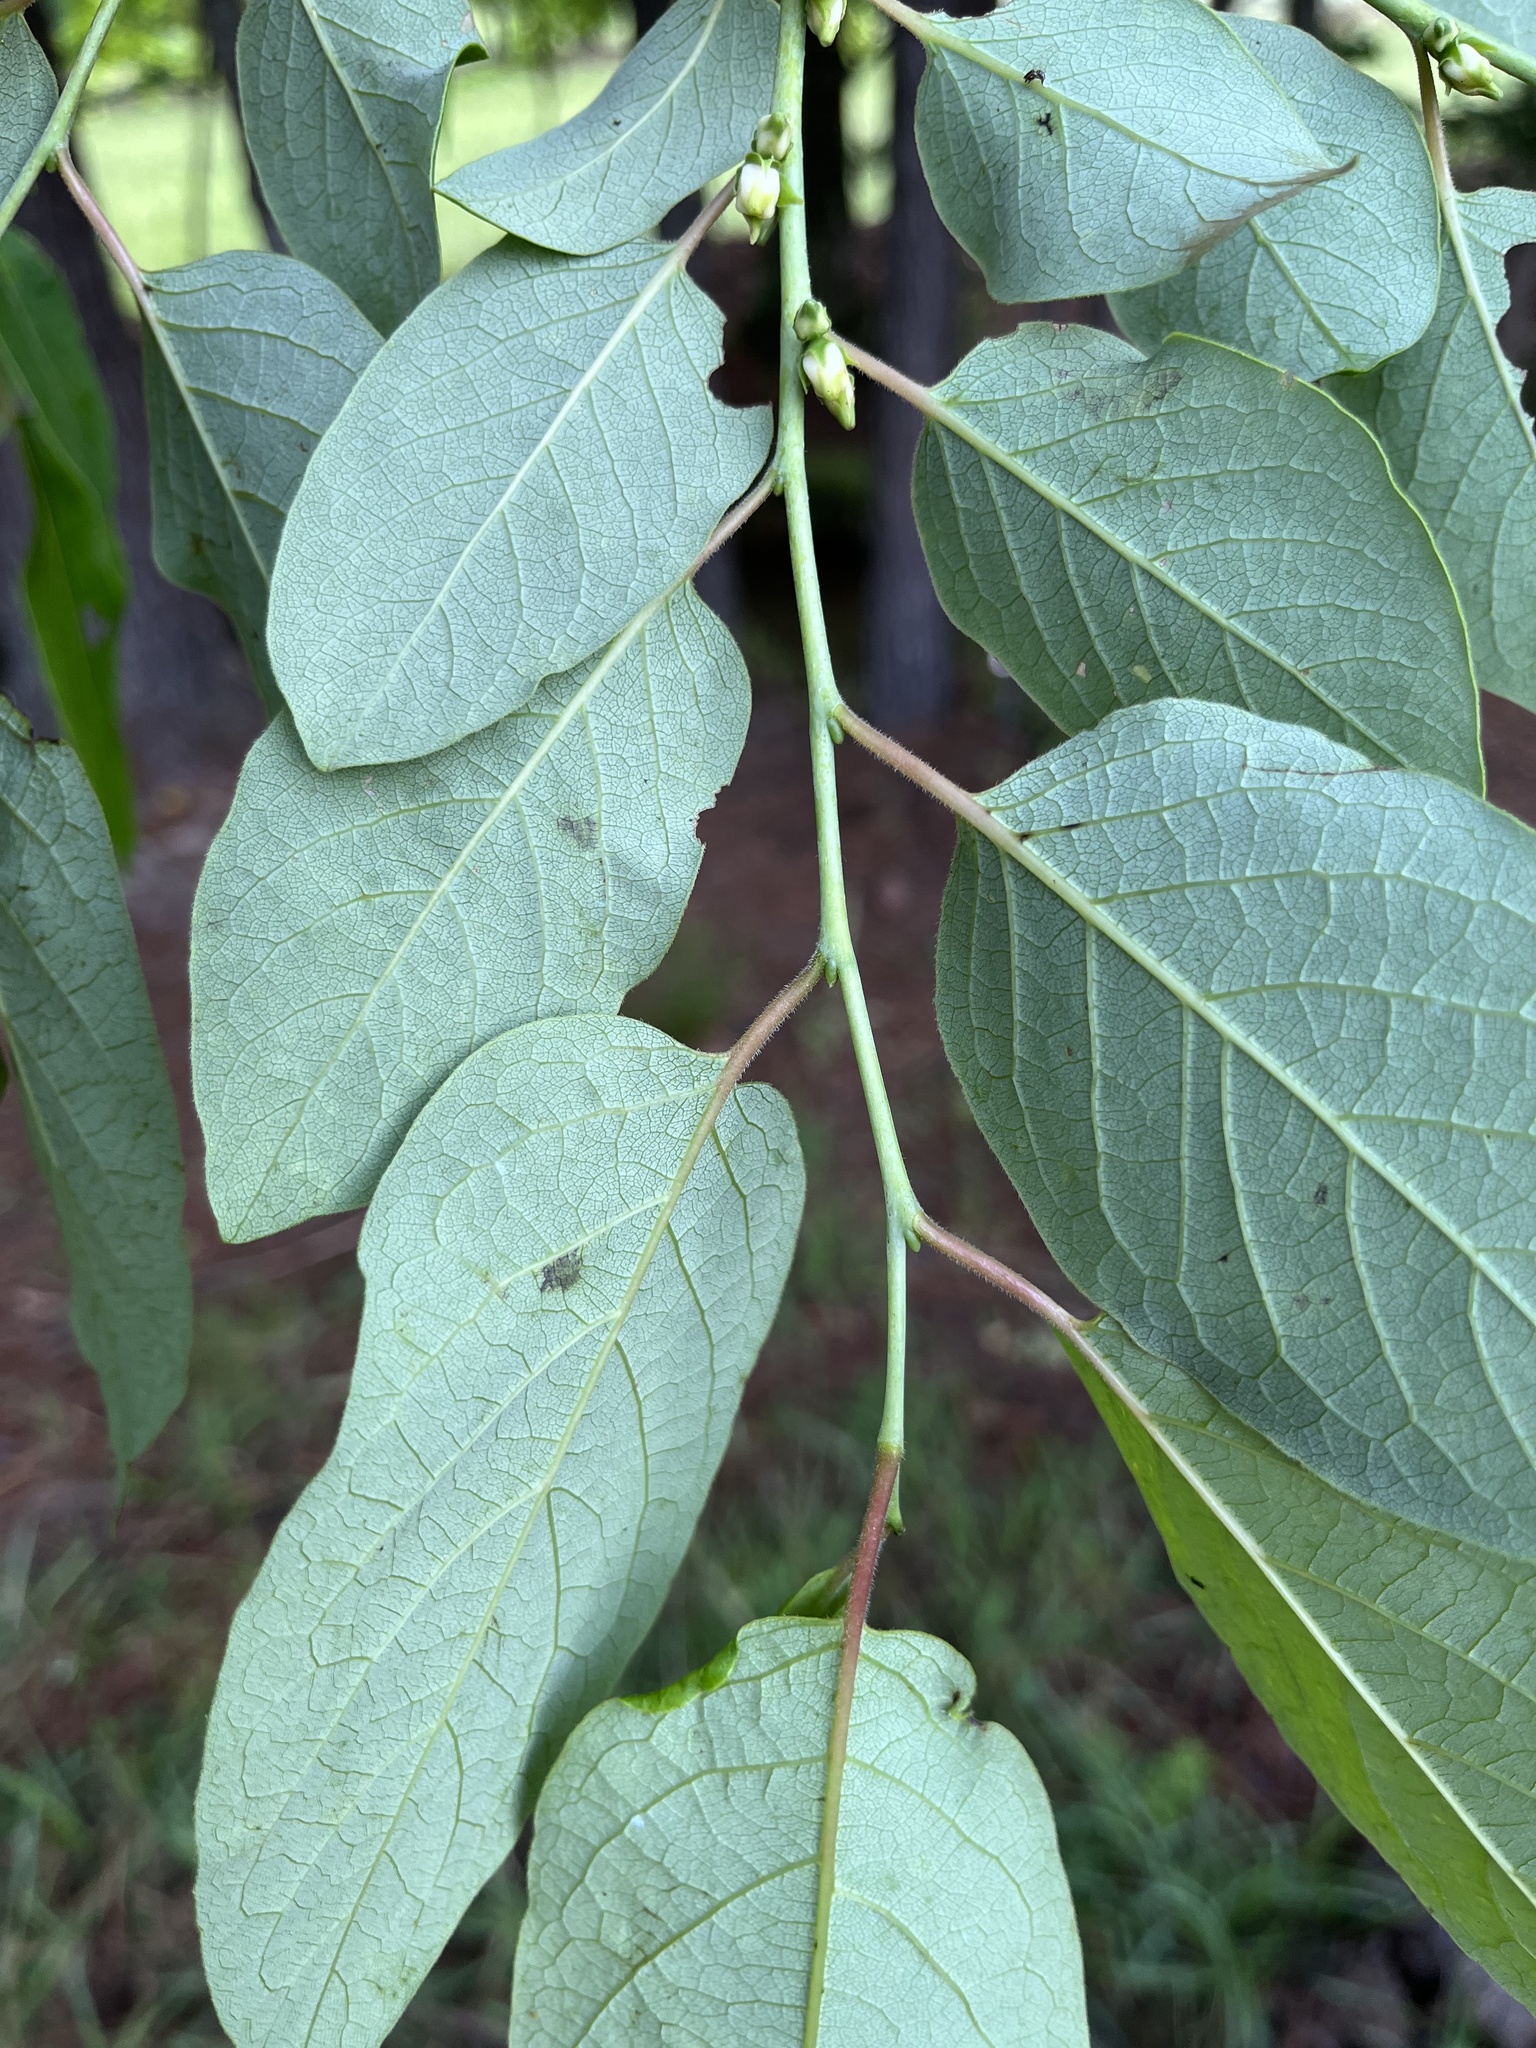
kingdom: Plantae
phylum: Tracheophyta
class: Magnoliopsida
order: Ericales
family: Ebenaceae
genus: Diospyros
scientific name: Diospyros virginiana
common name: Persimmon
